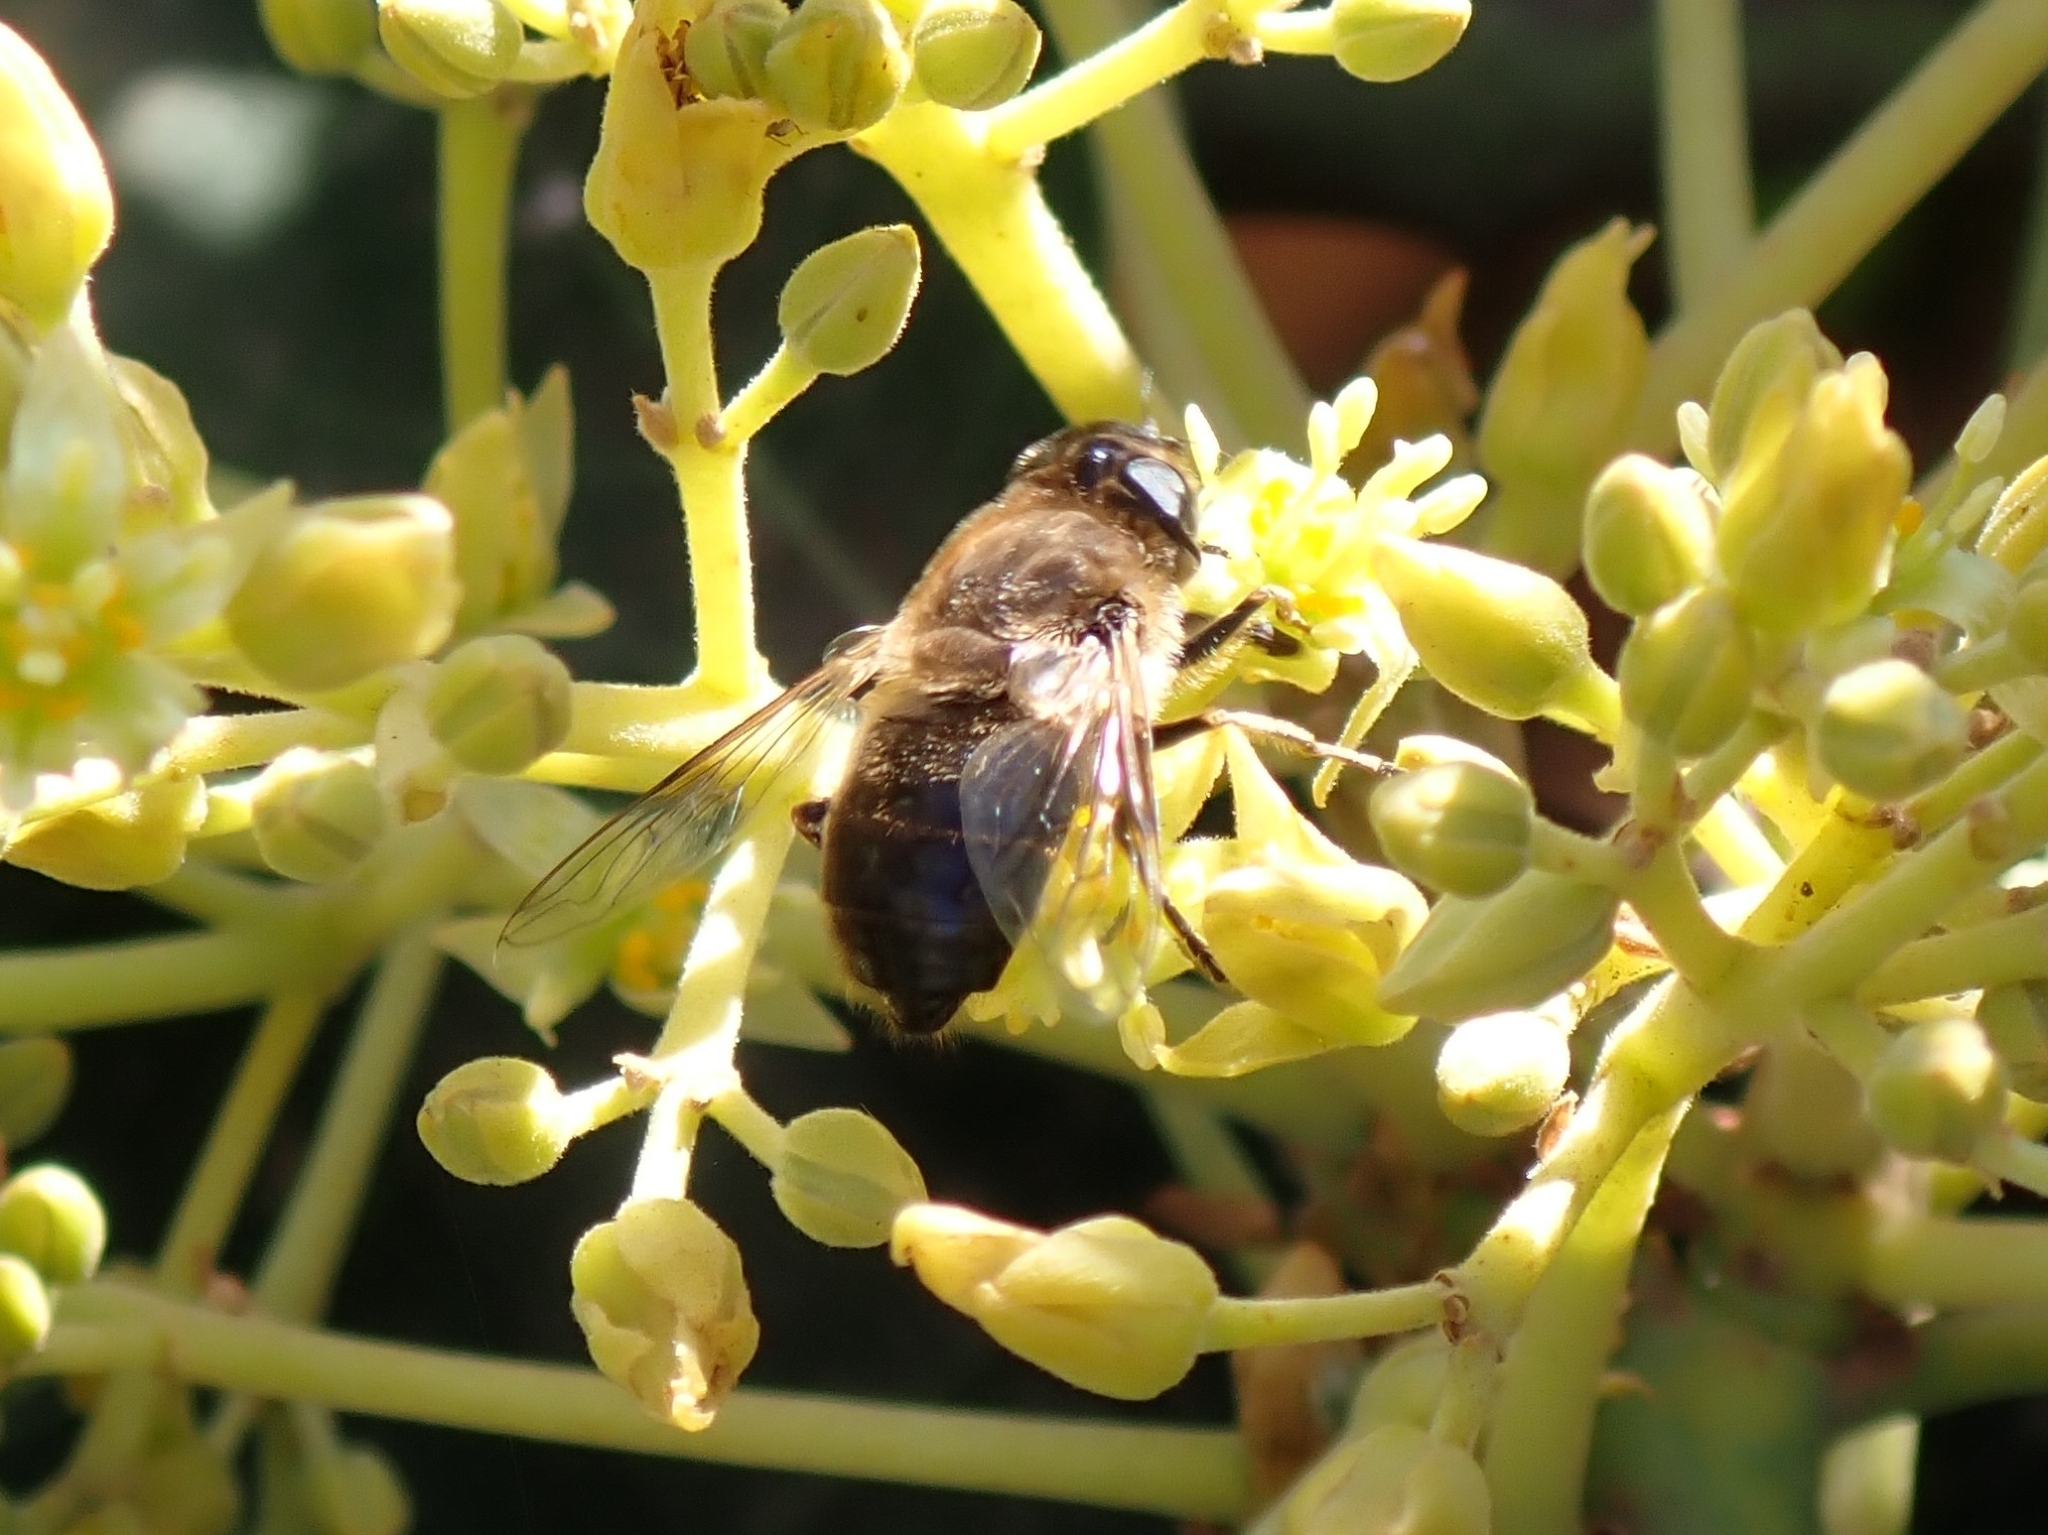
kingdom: Animalia
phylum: Arthropoda
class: Insecta
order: Diptera
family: Syrphidae
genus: Eristalis
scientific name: Eristalis tenax
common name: Drone fly
